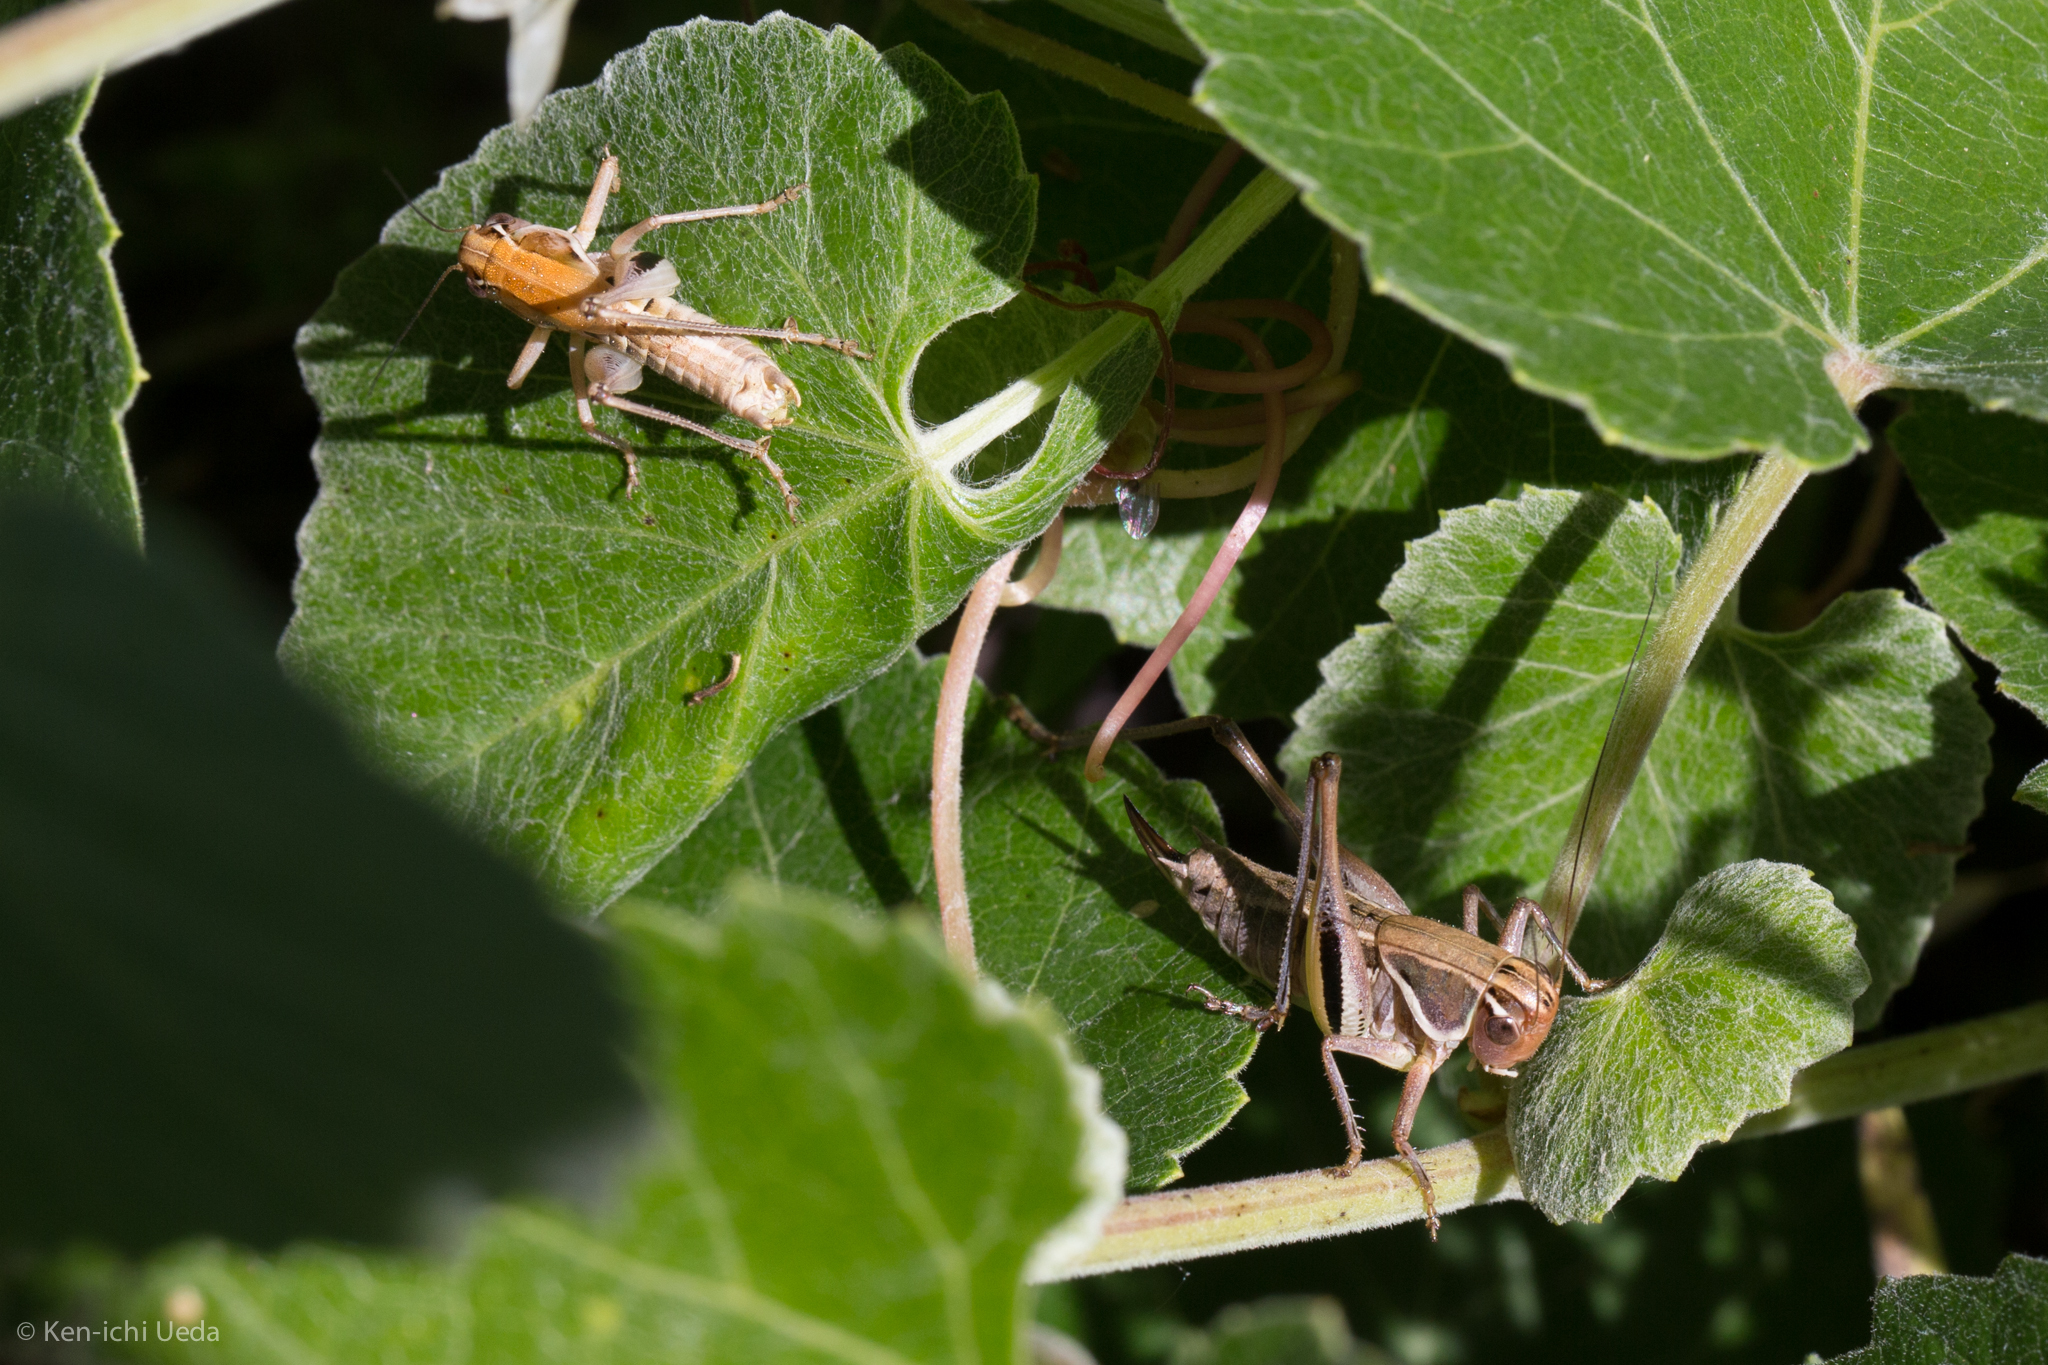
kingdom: Animalia
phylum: Arthropoda
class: Insecta
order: Orthoptera
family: Tettigoniidae
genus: Decticita
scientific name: Decticita brevicauda
